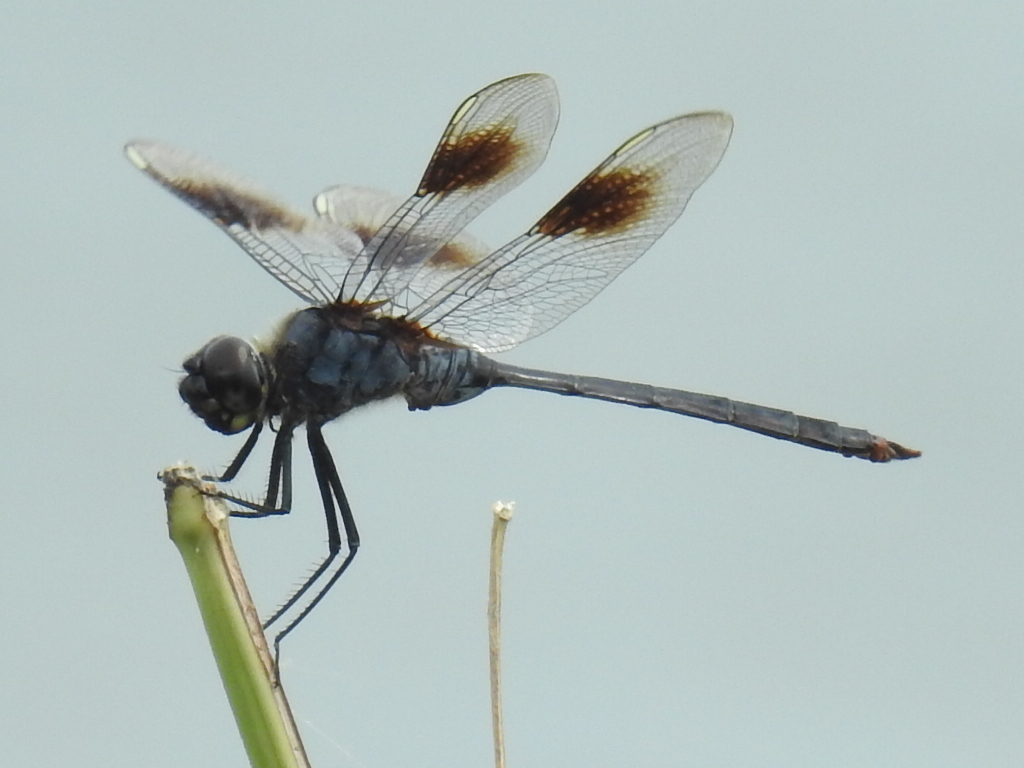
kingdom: Animalia
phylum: Arthropoda
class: Insecta
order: Odonata
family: Libellulidae
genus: Brachymesia
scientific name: Brachymesia gravida
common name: Four-spotted pennant
